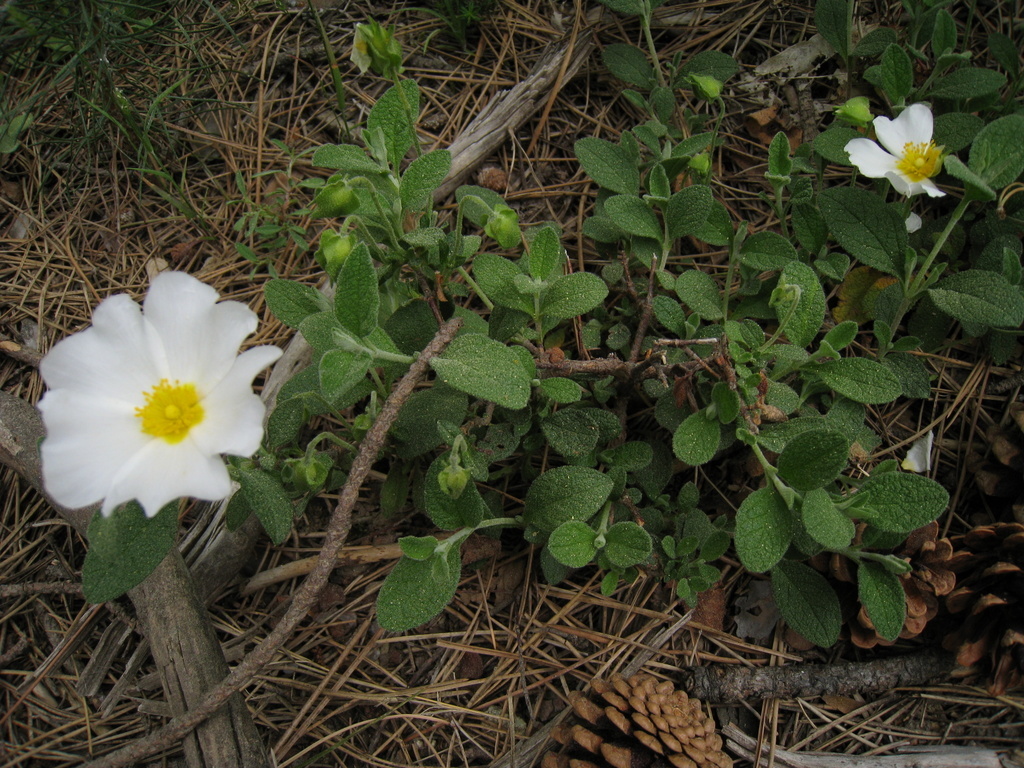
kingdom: Plantae
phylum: Tracheophyta
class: Magnoliopsida
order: Malvales
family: Cistaceae
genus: Cistus
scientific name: Cistus salviifolius
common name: Salvia cistus
